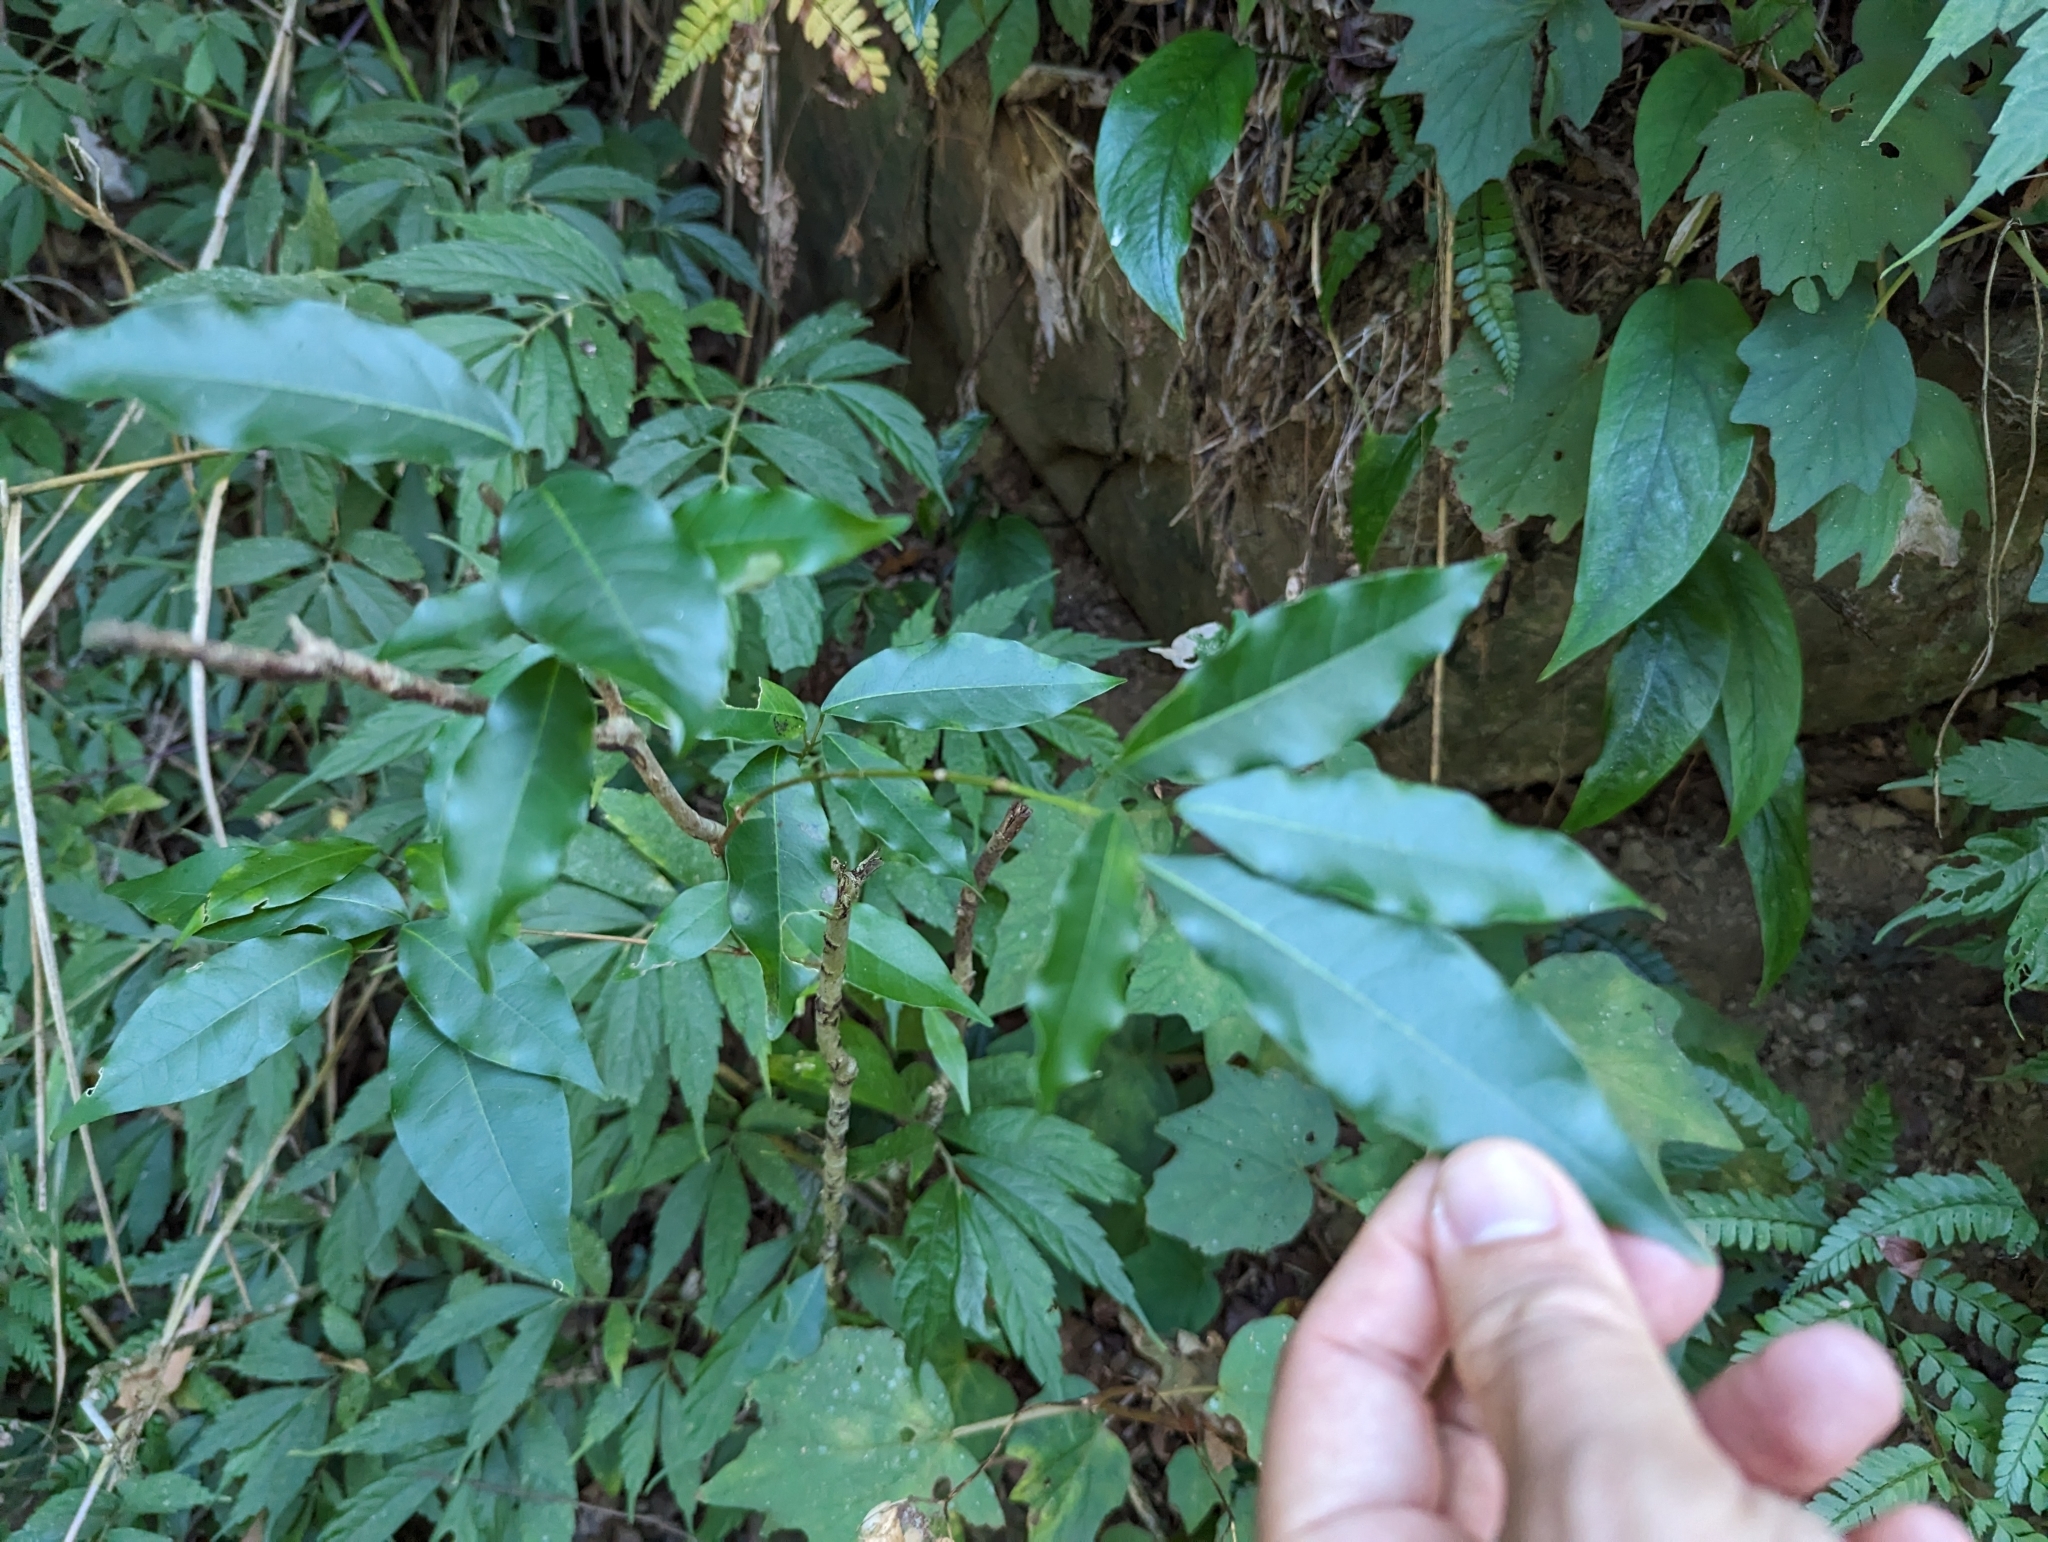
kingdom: Plantae
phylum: Tracheophyta
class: Magnoliopsida
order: Sapindales
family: Sapindaceae
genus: Acer
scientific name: Acer oblongum
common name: Himalayan maple
